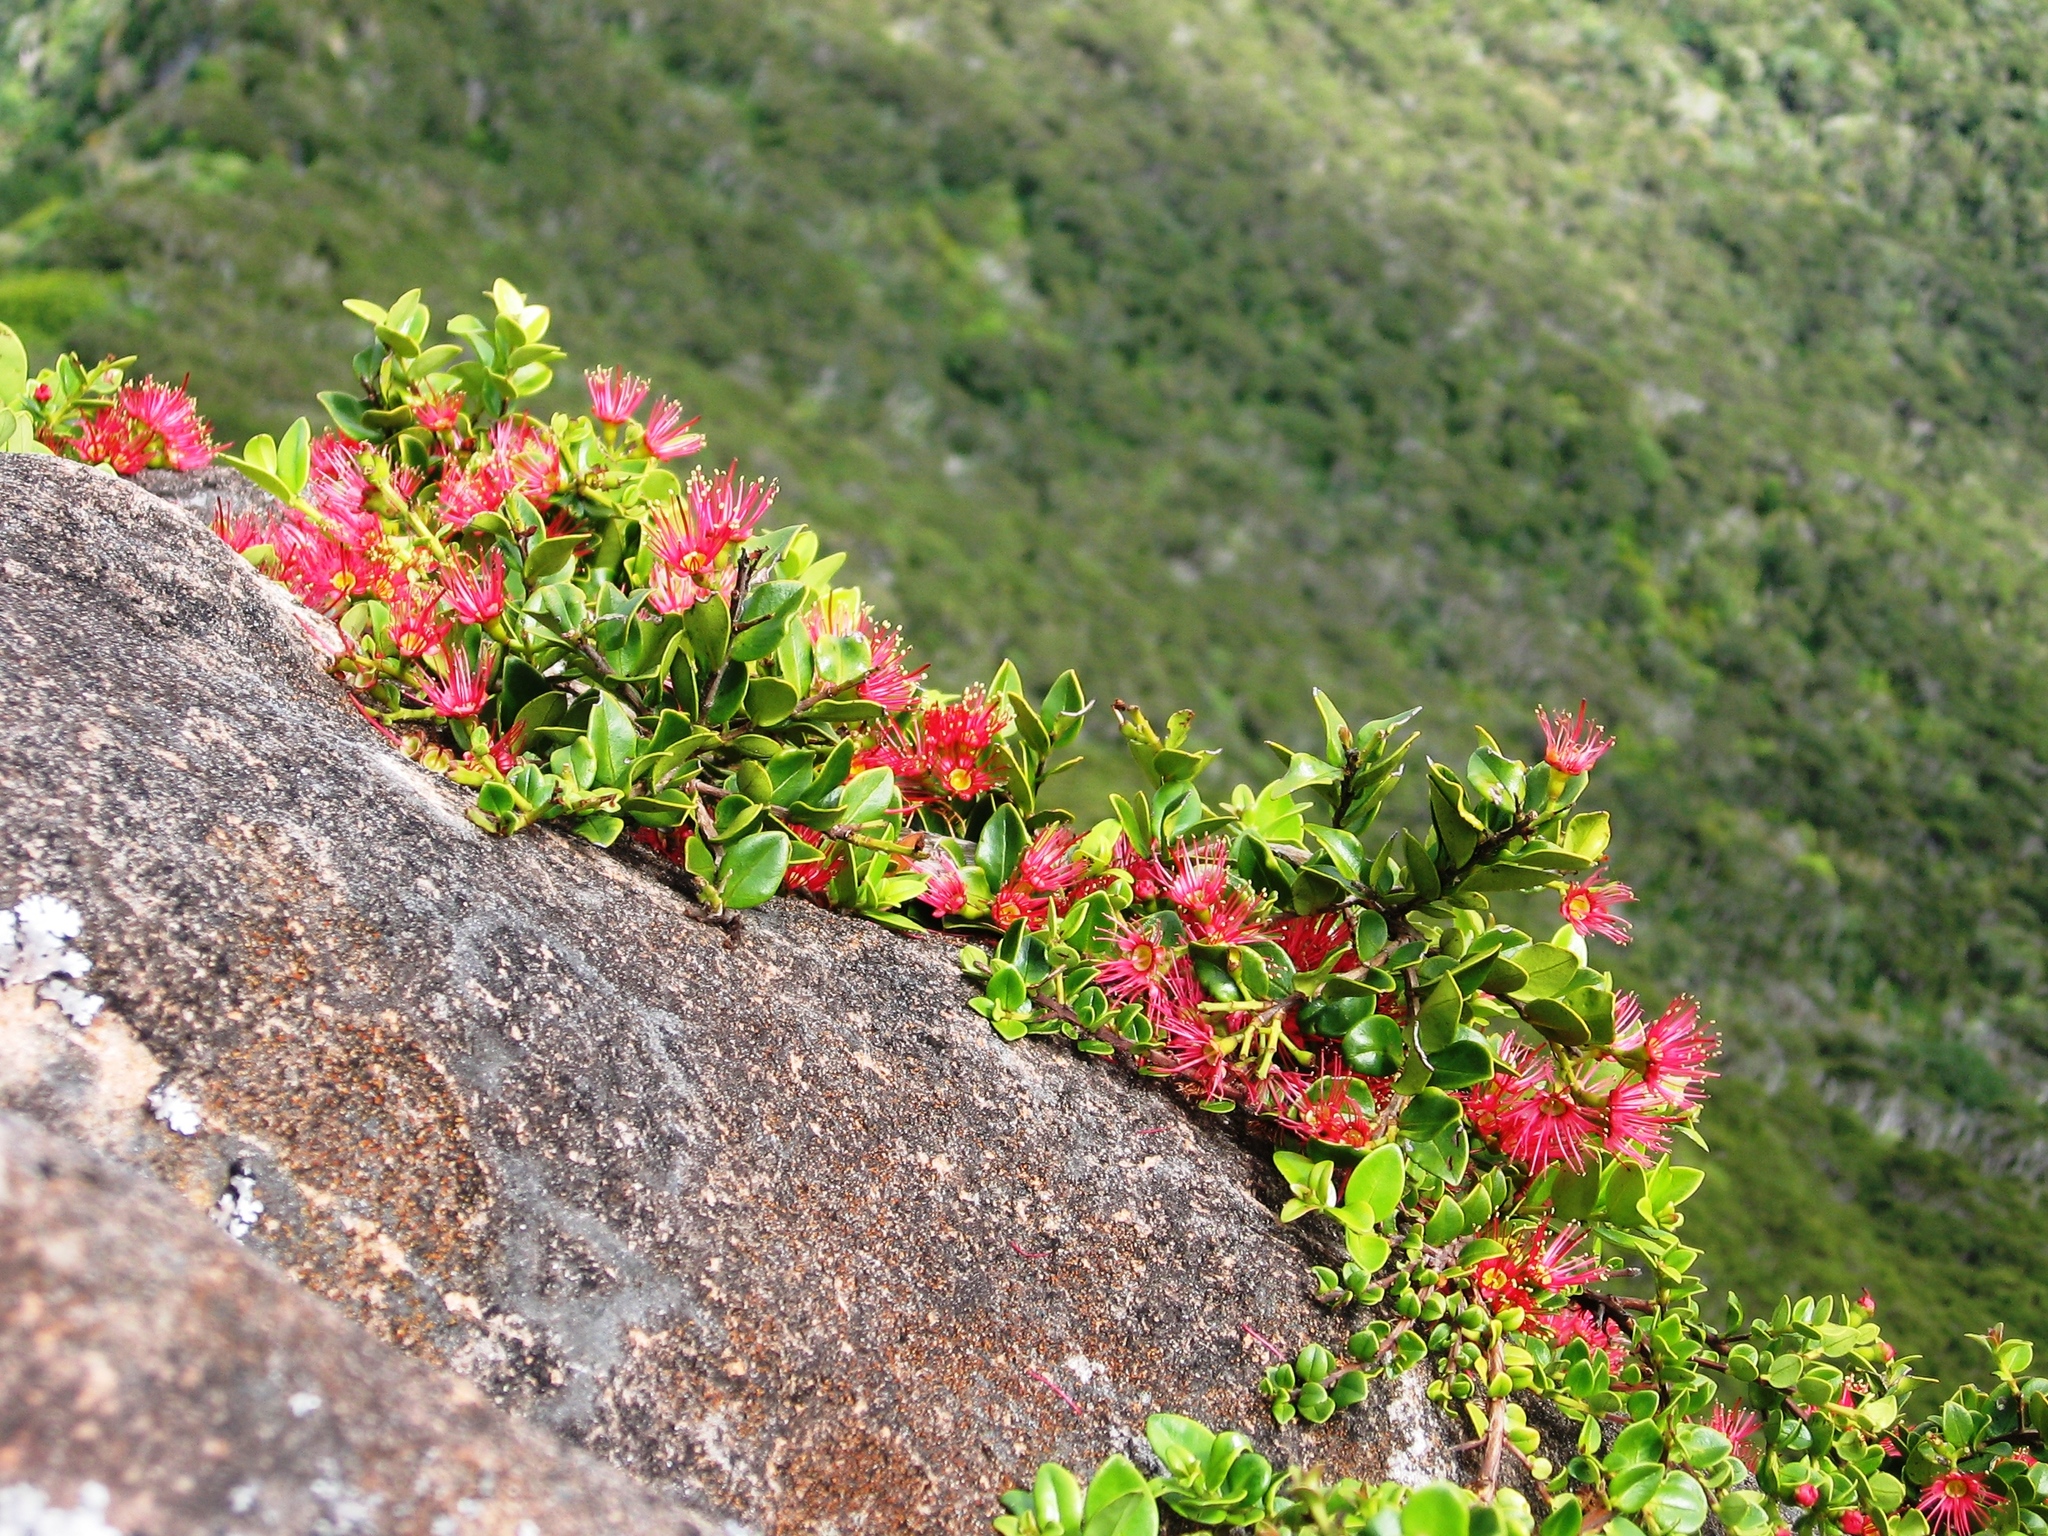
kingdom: Plantae
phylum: Tracheophyta
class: Magnoliopsida
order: Myrtales
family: Myrtaceae
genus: Metrosideros
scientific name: Metrosideros carminea
